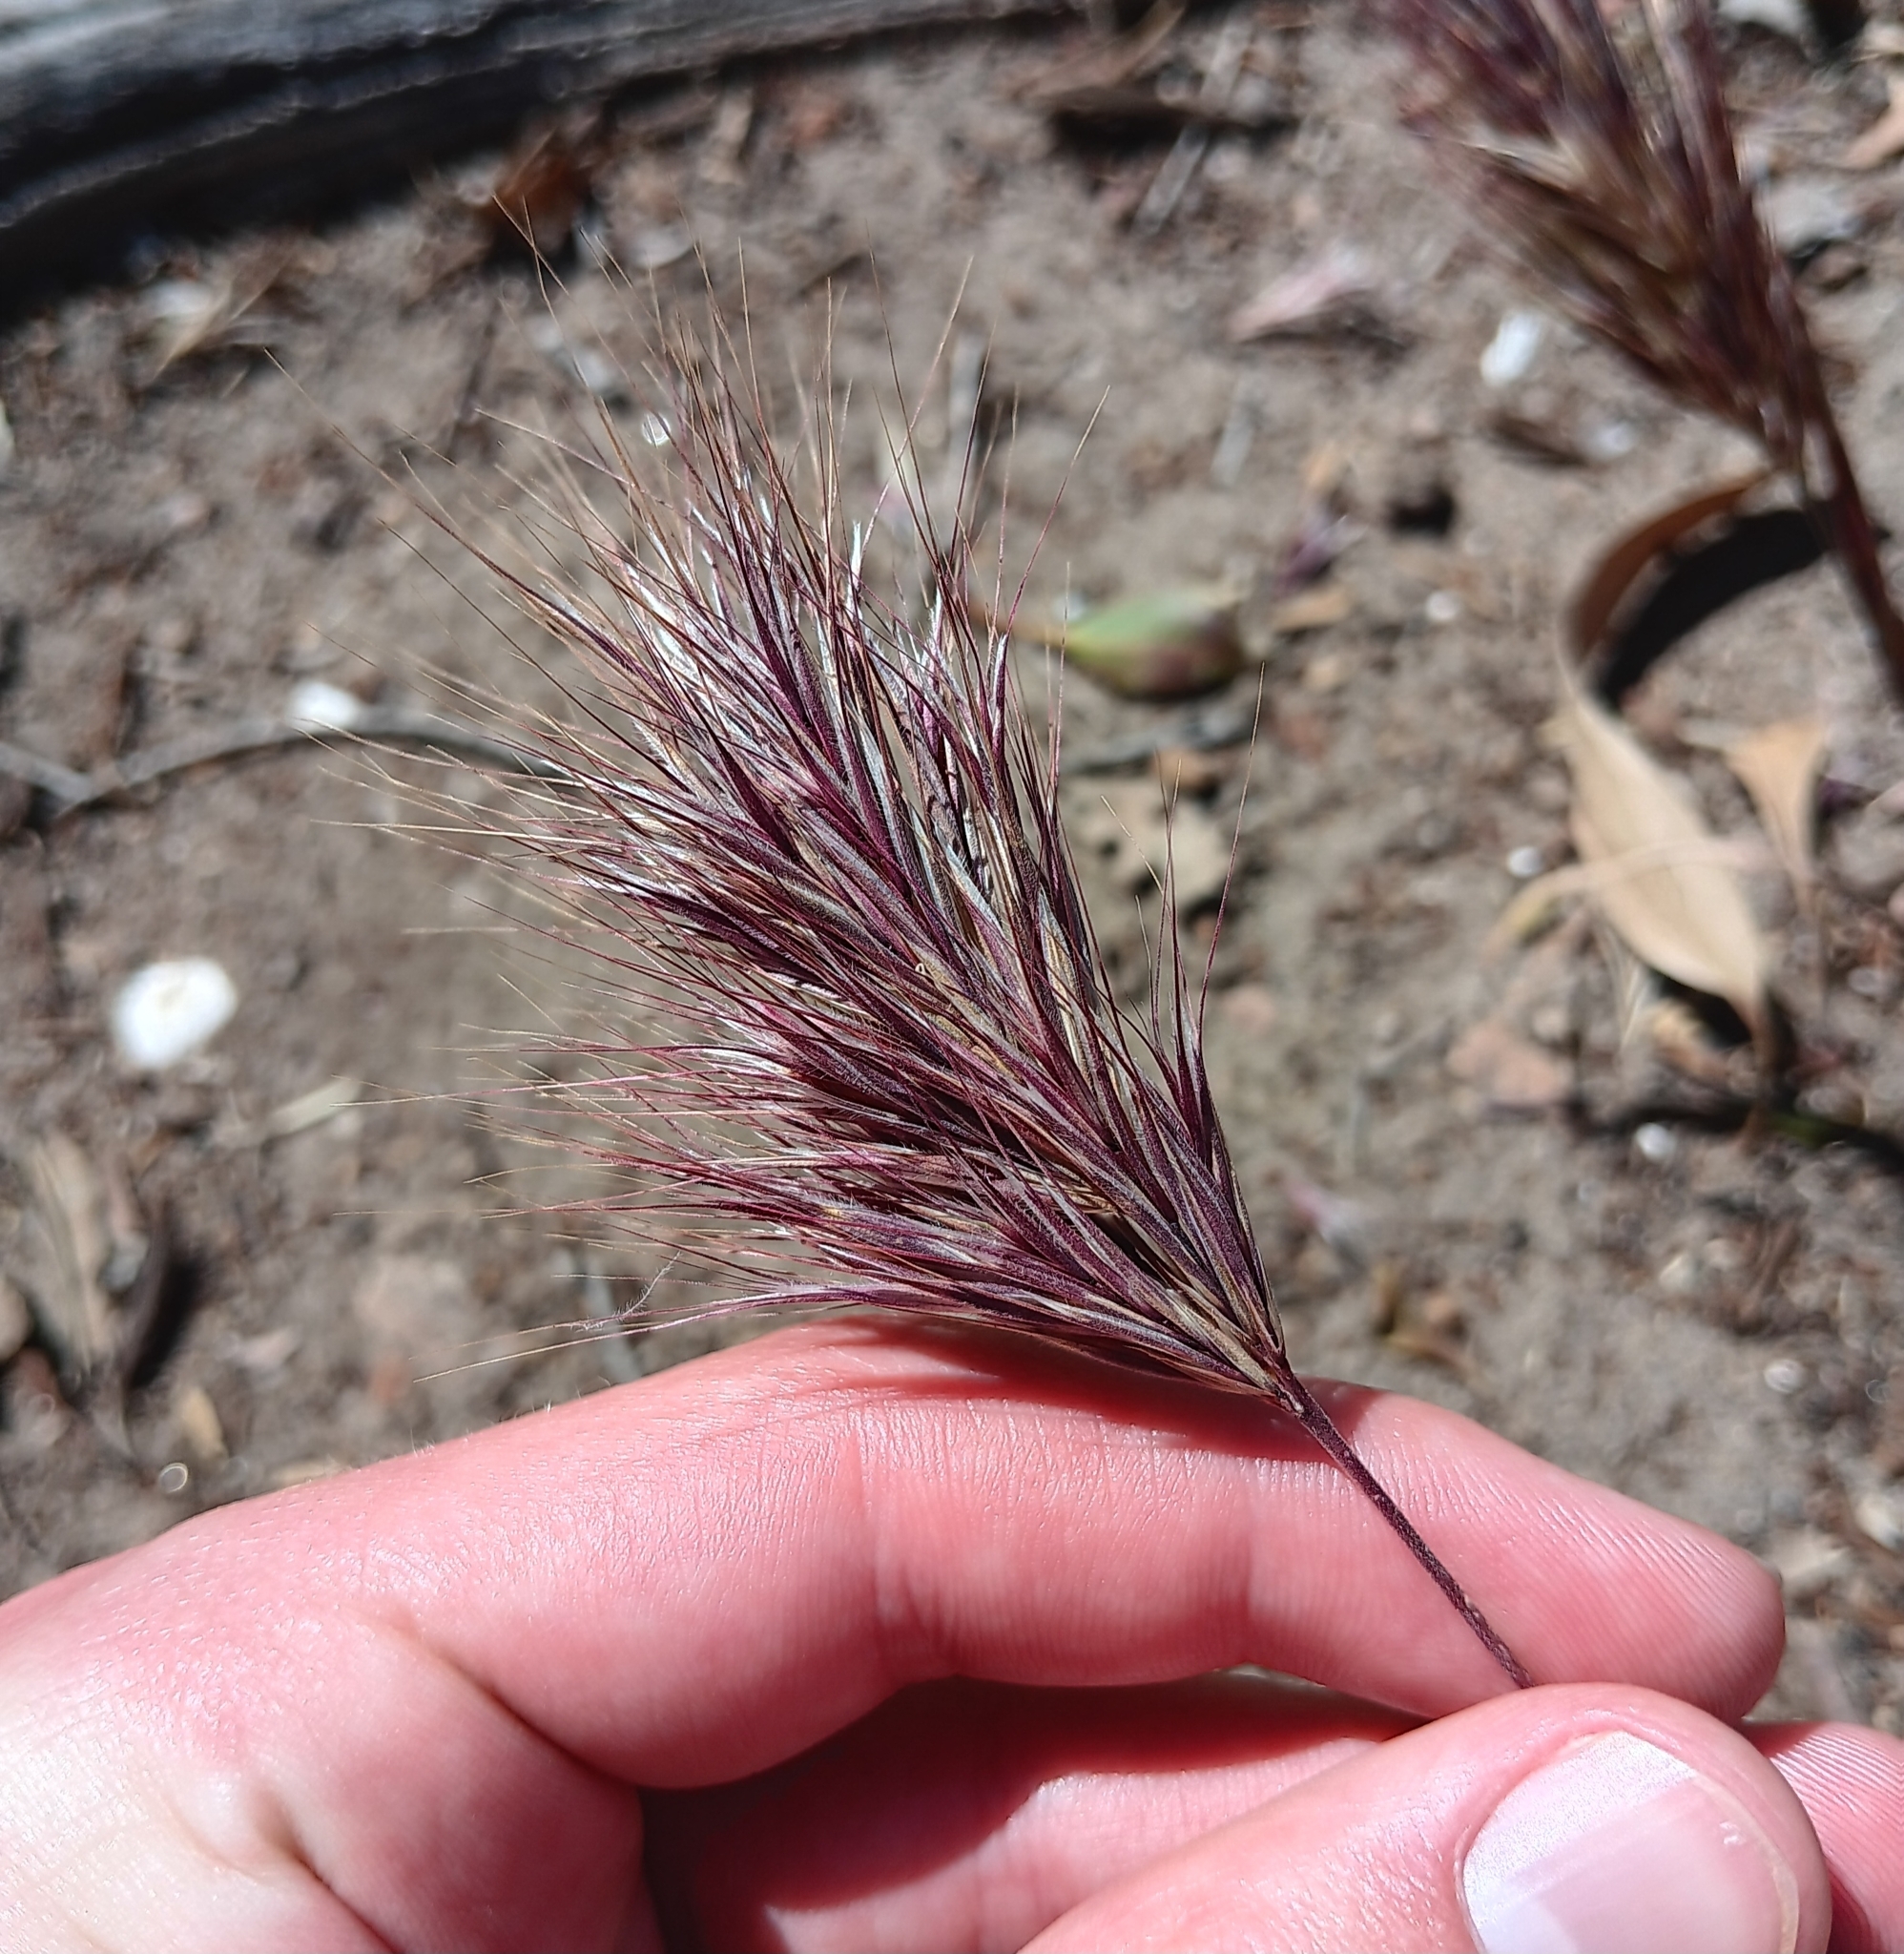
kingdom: Plantae
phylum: Tracheophyta
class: Liliopsida
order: Poales
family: Poaceae
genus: Bromus
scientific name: Bromus rubens
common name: Red brome
